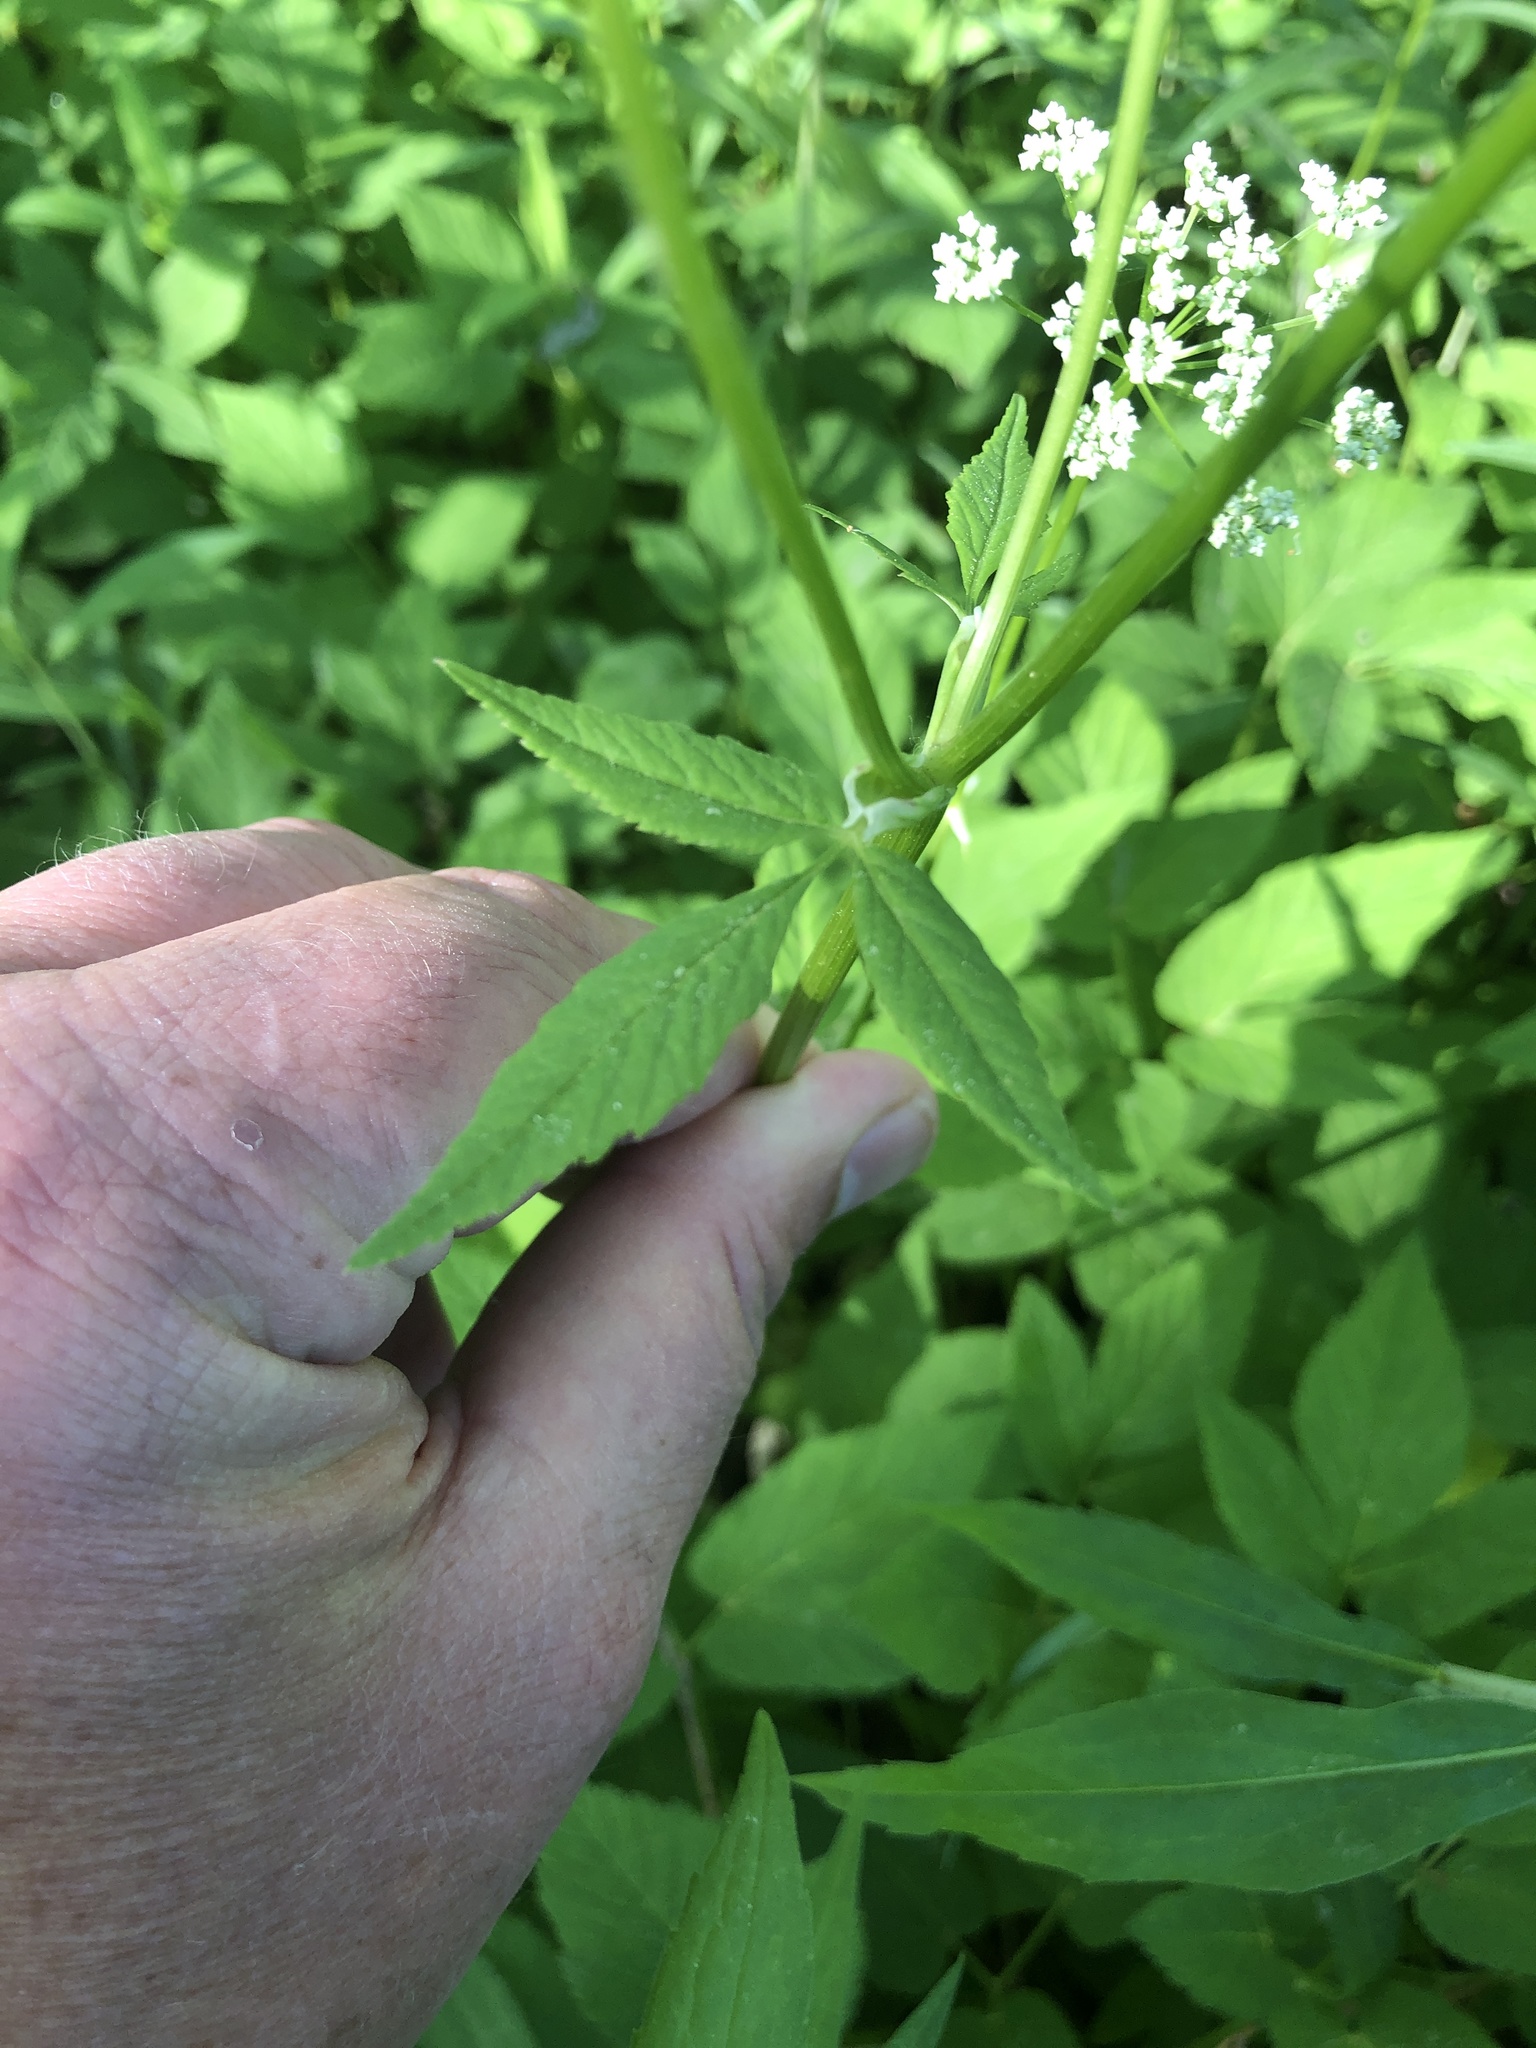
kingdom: Plantae
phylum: Tracheophyta
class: Magnoliopsida
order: Apiales
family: Apiaceae
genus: Aegopodium
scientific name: Aegopodium podagraria
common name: Ground-elder
